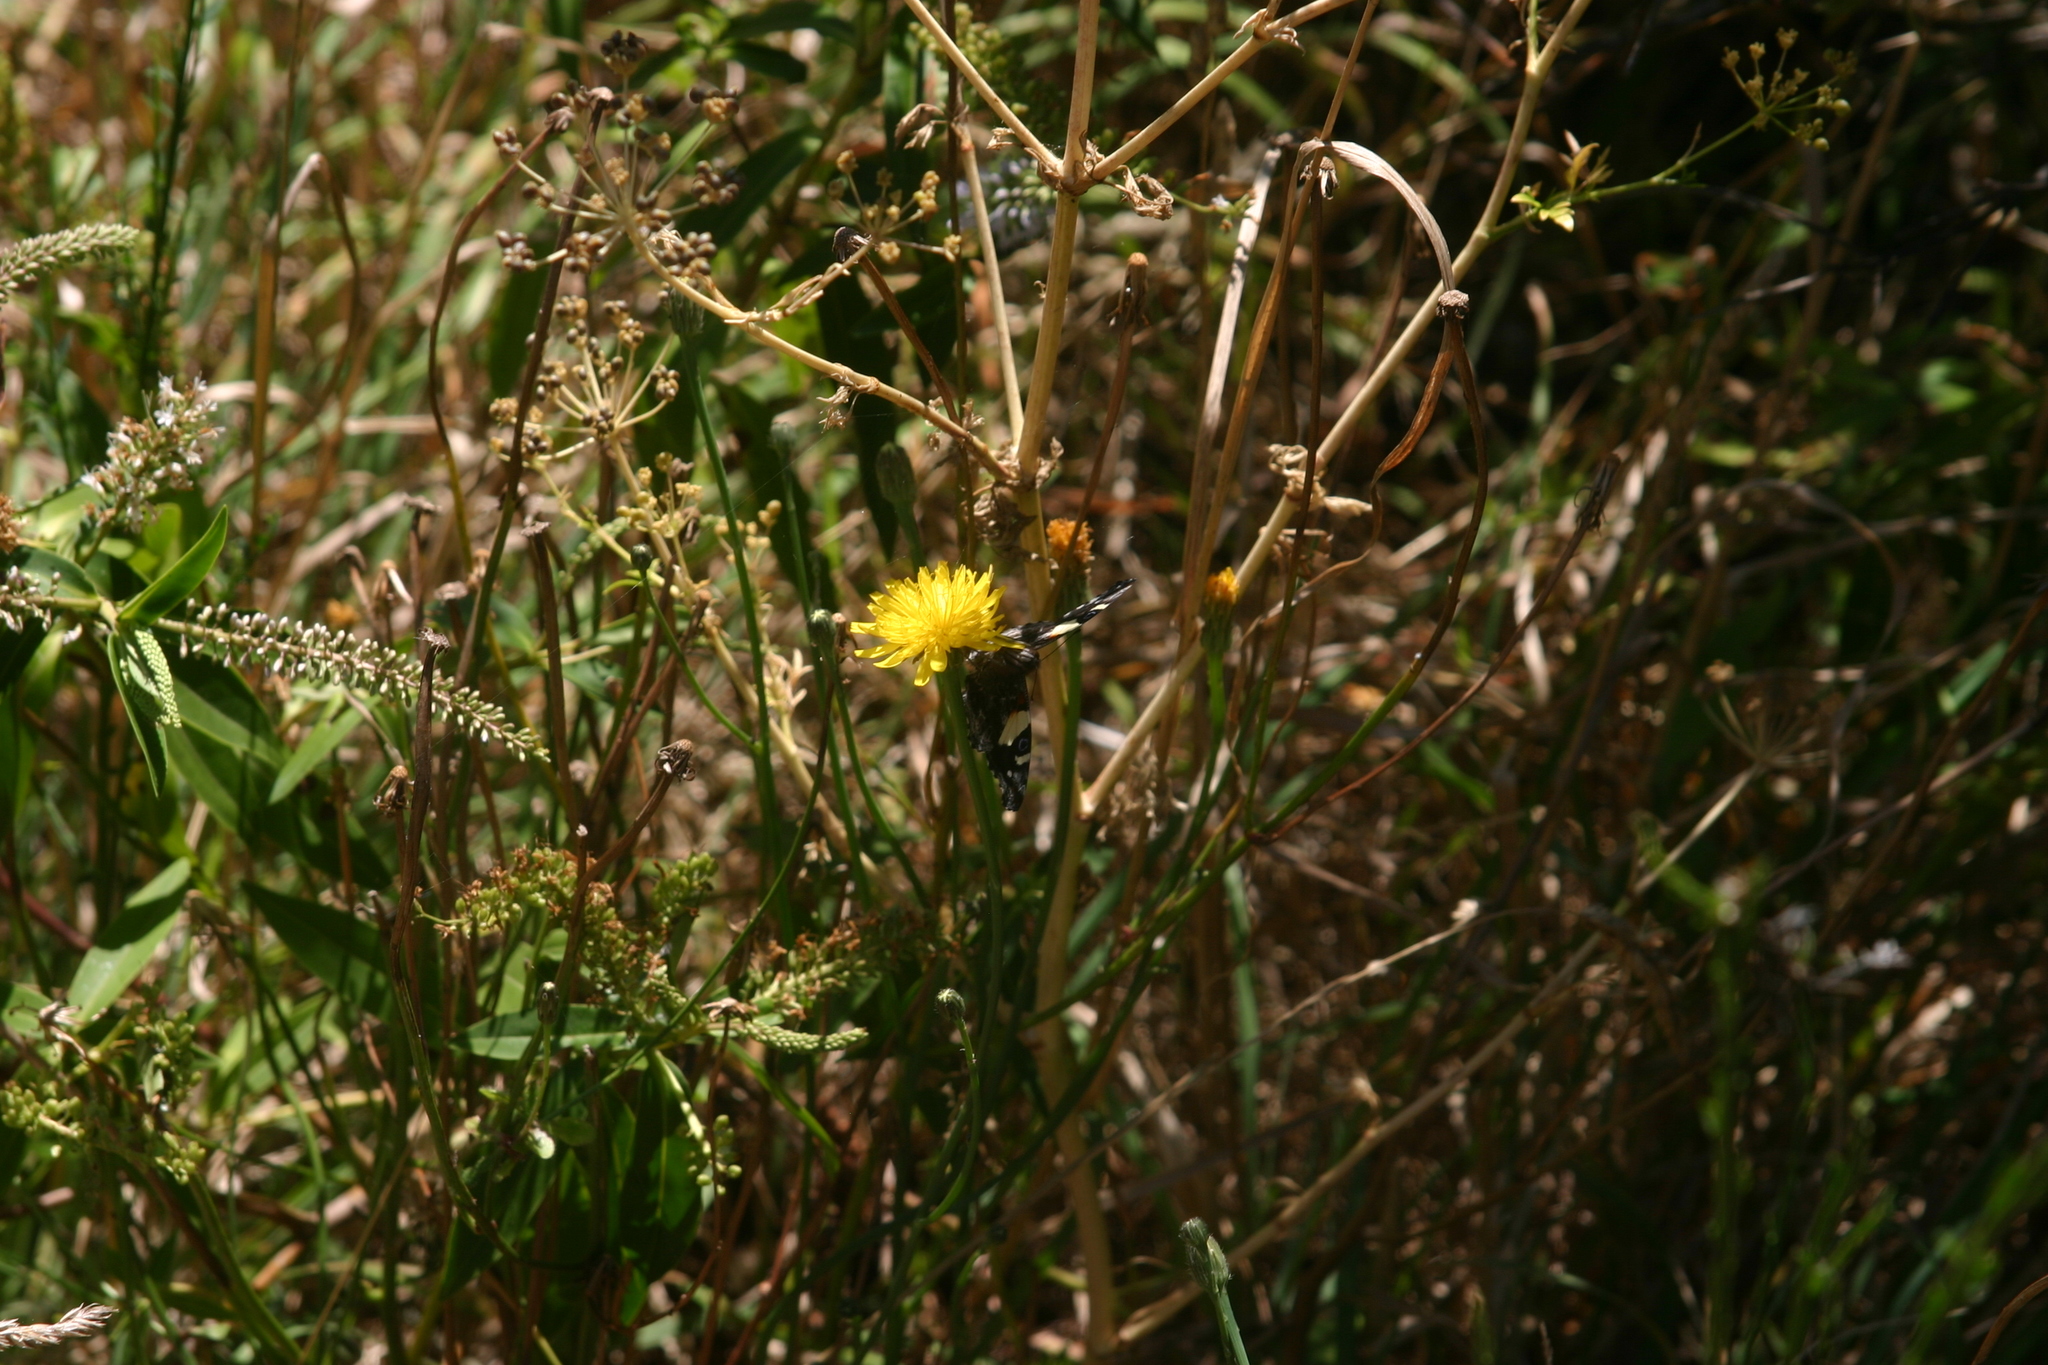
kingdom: Animalia
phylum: Arthropoda
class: Insecta
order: Lepidoptera
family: Nymphalidae
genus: Vanessa
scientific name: Vanessa itea
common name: Yellow admiral
